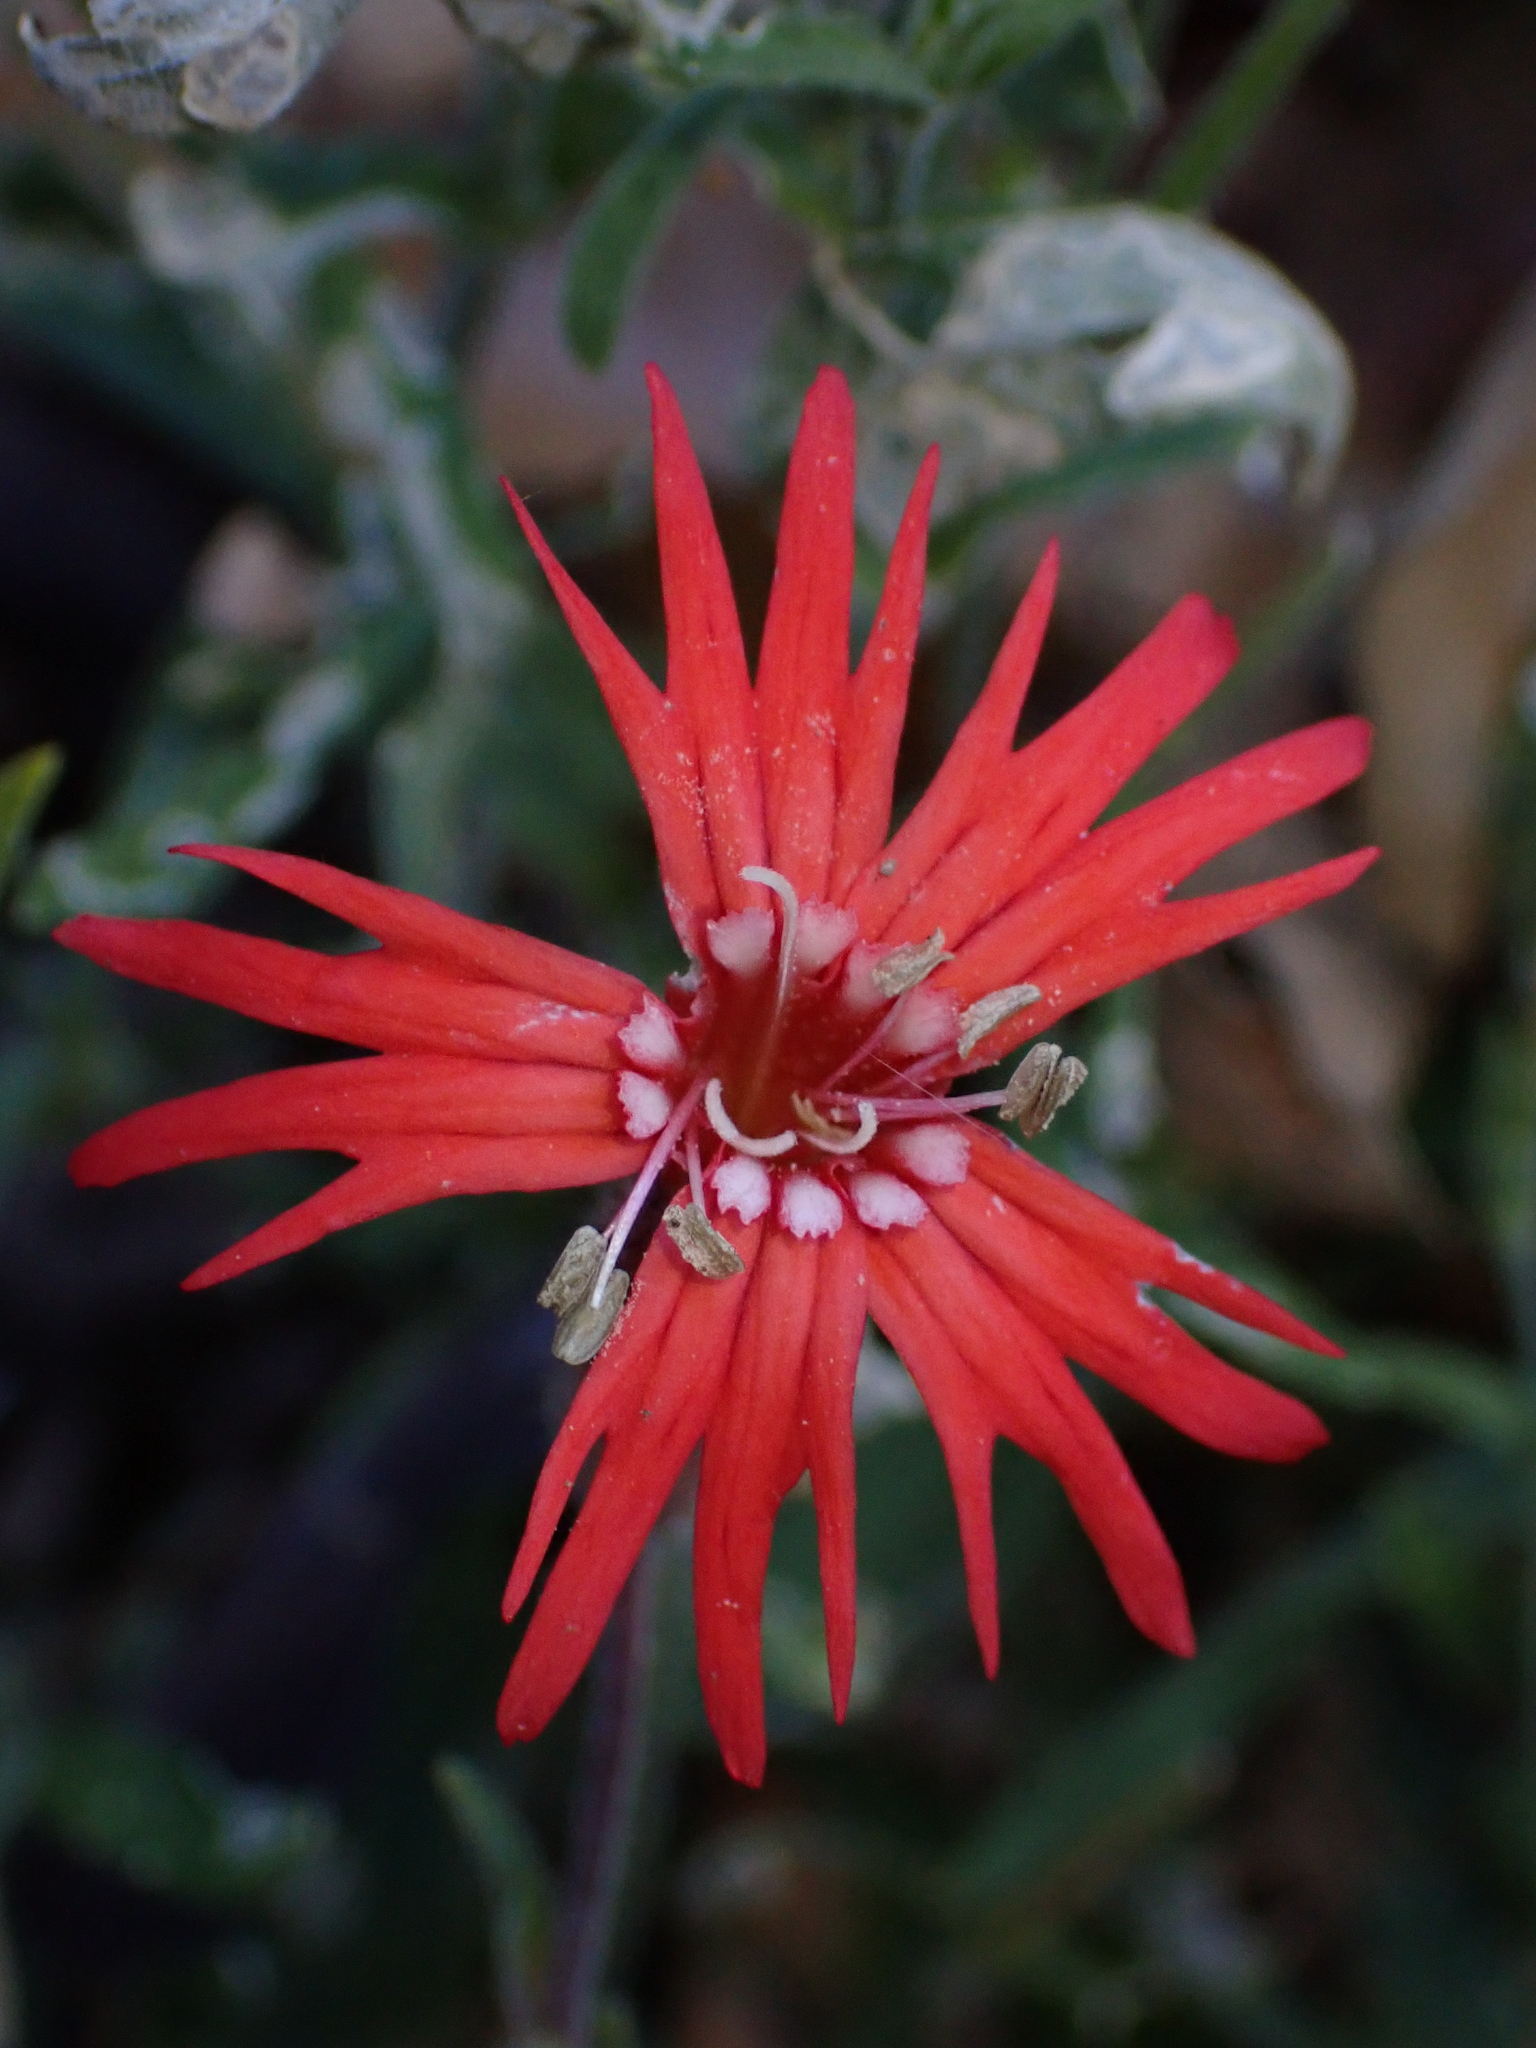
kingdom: Plantae
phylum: Tracheophyta
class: Magnoliopsida
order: Caryophyllales
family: Caryophyllaceae
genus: Silene
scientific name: Silene laciniata
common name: Indian-pink
